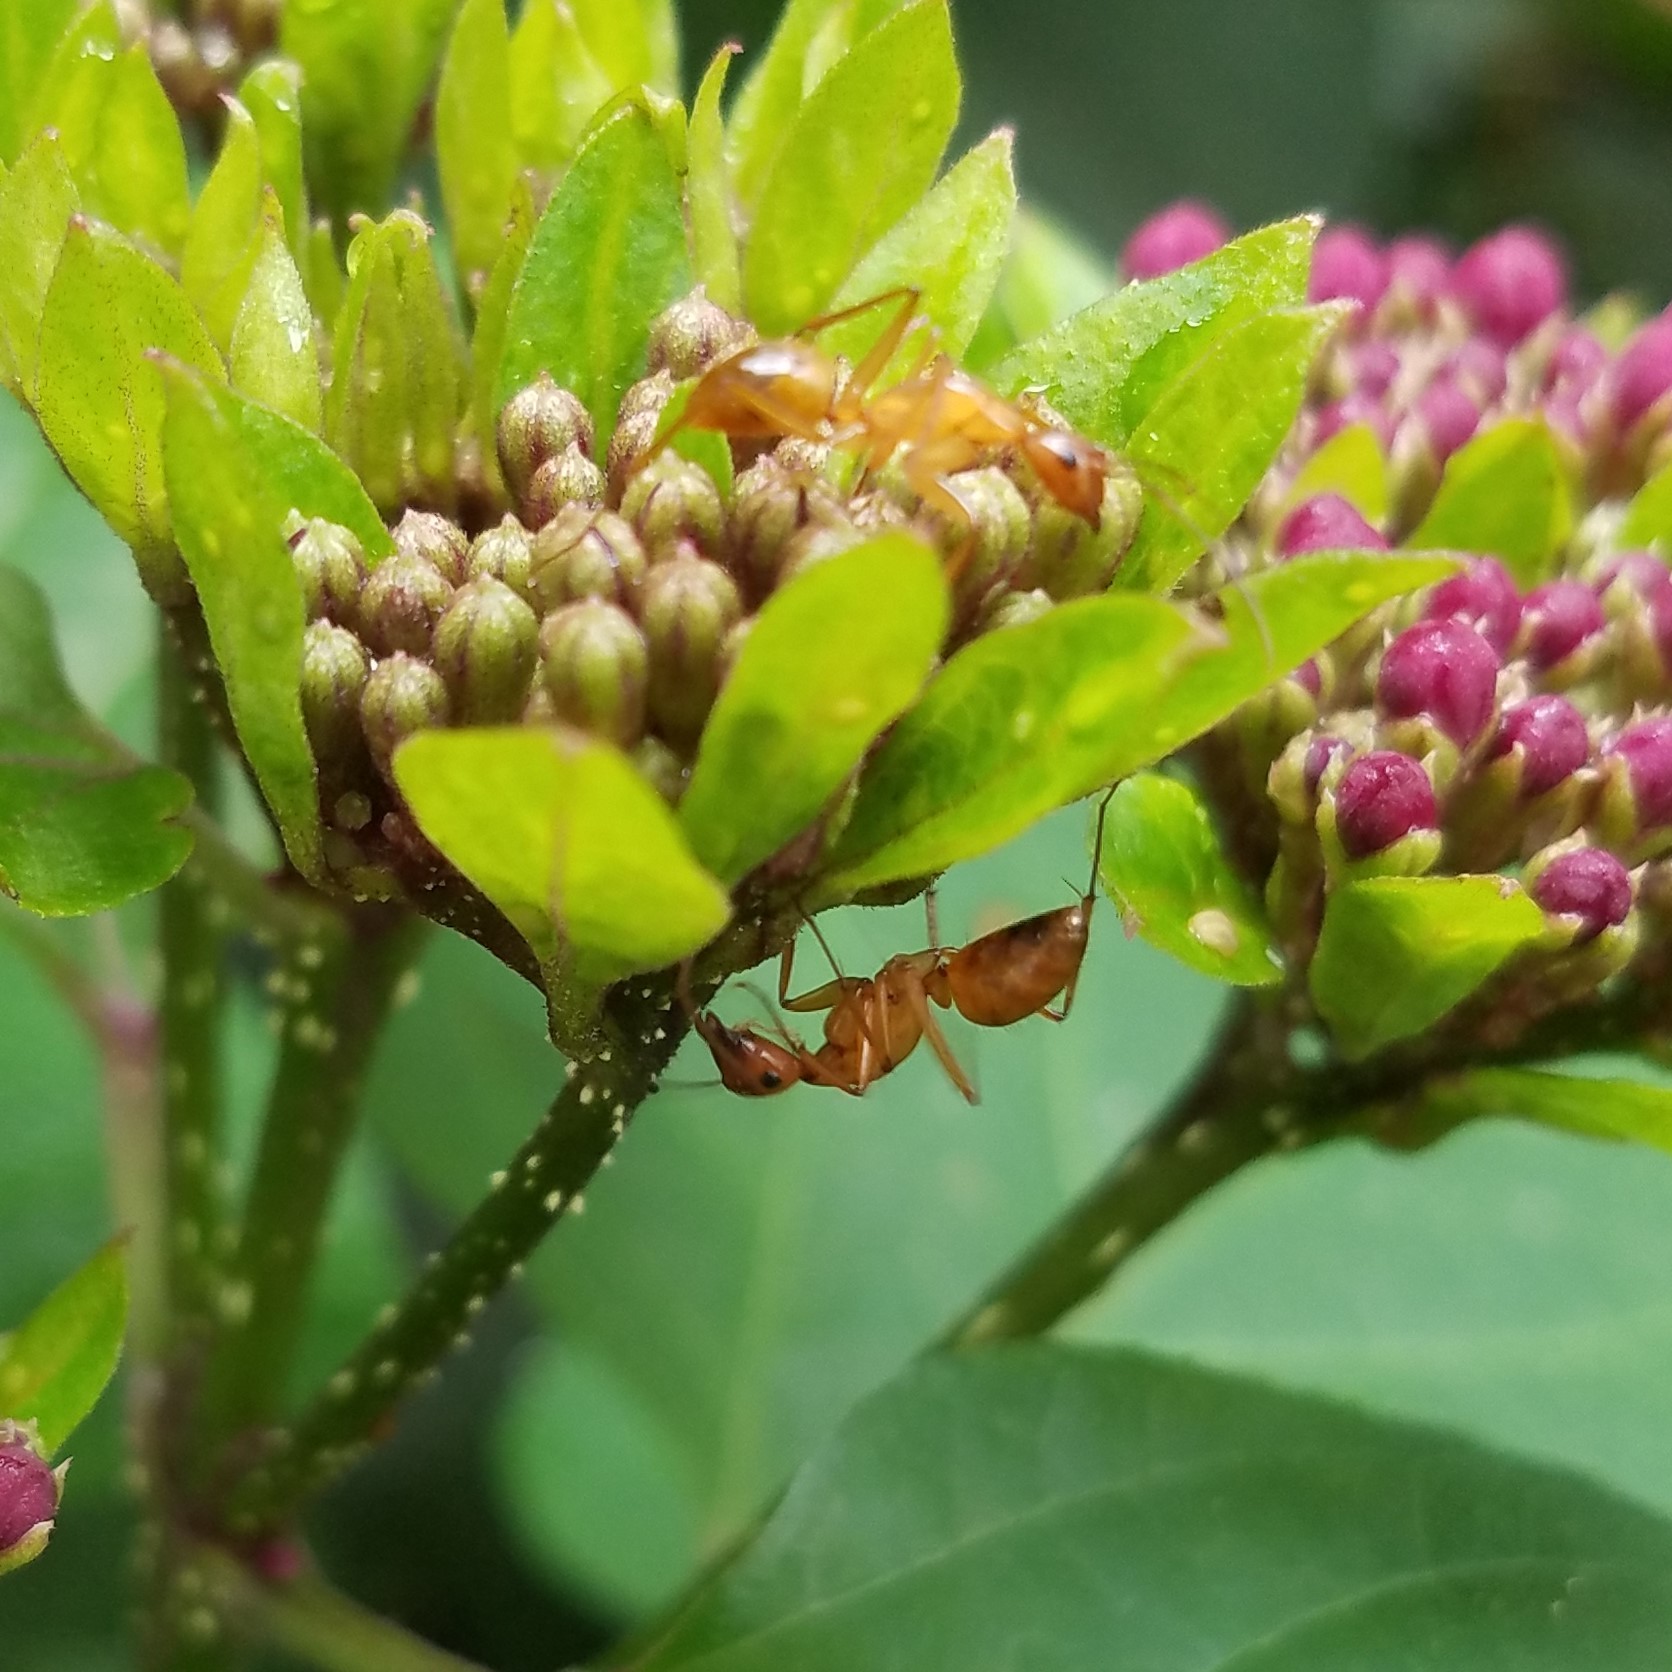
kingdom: Animalia
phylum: Arthropoda
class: Insecta
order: Hymenoptera
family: Formicidae
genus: Camponotus
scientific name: Camponotus castaneus
